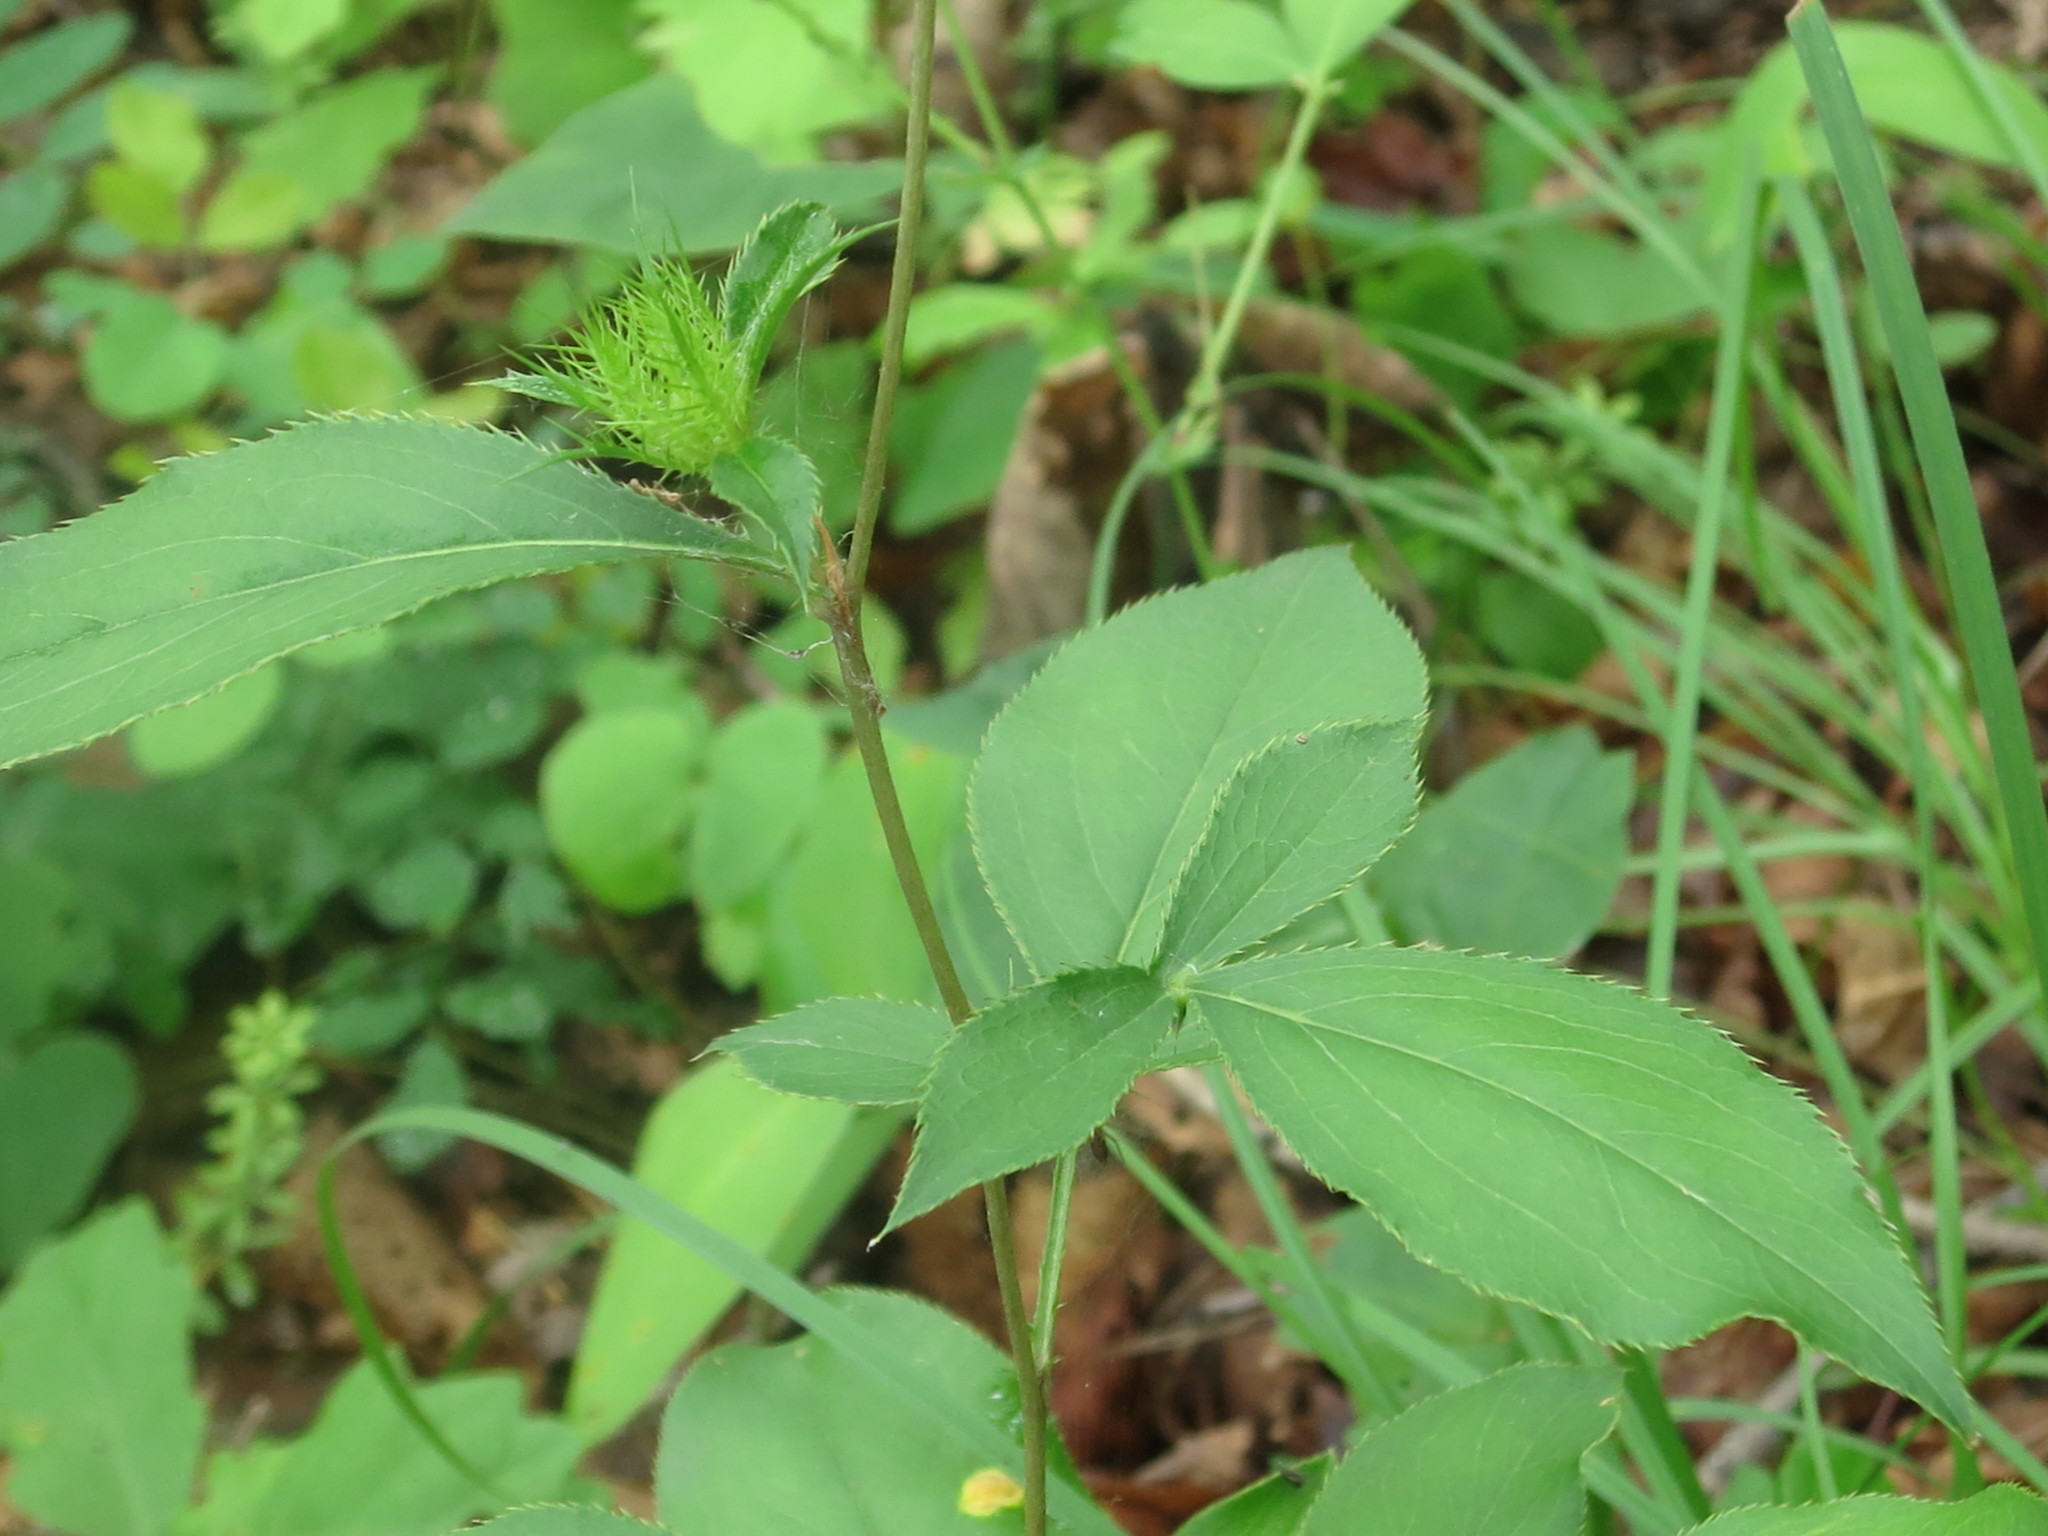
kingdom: Plantae
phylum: Tracheophyta
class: Magnoliopsida
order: Asterales
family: Asteraceae
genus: Atractylodes
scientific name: Atractylodes lancea
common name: Southern tsangshu
